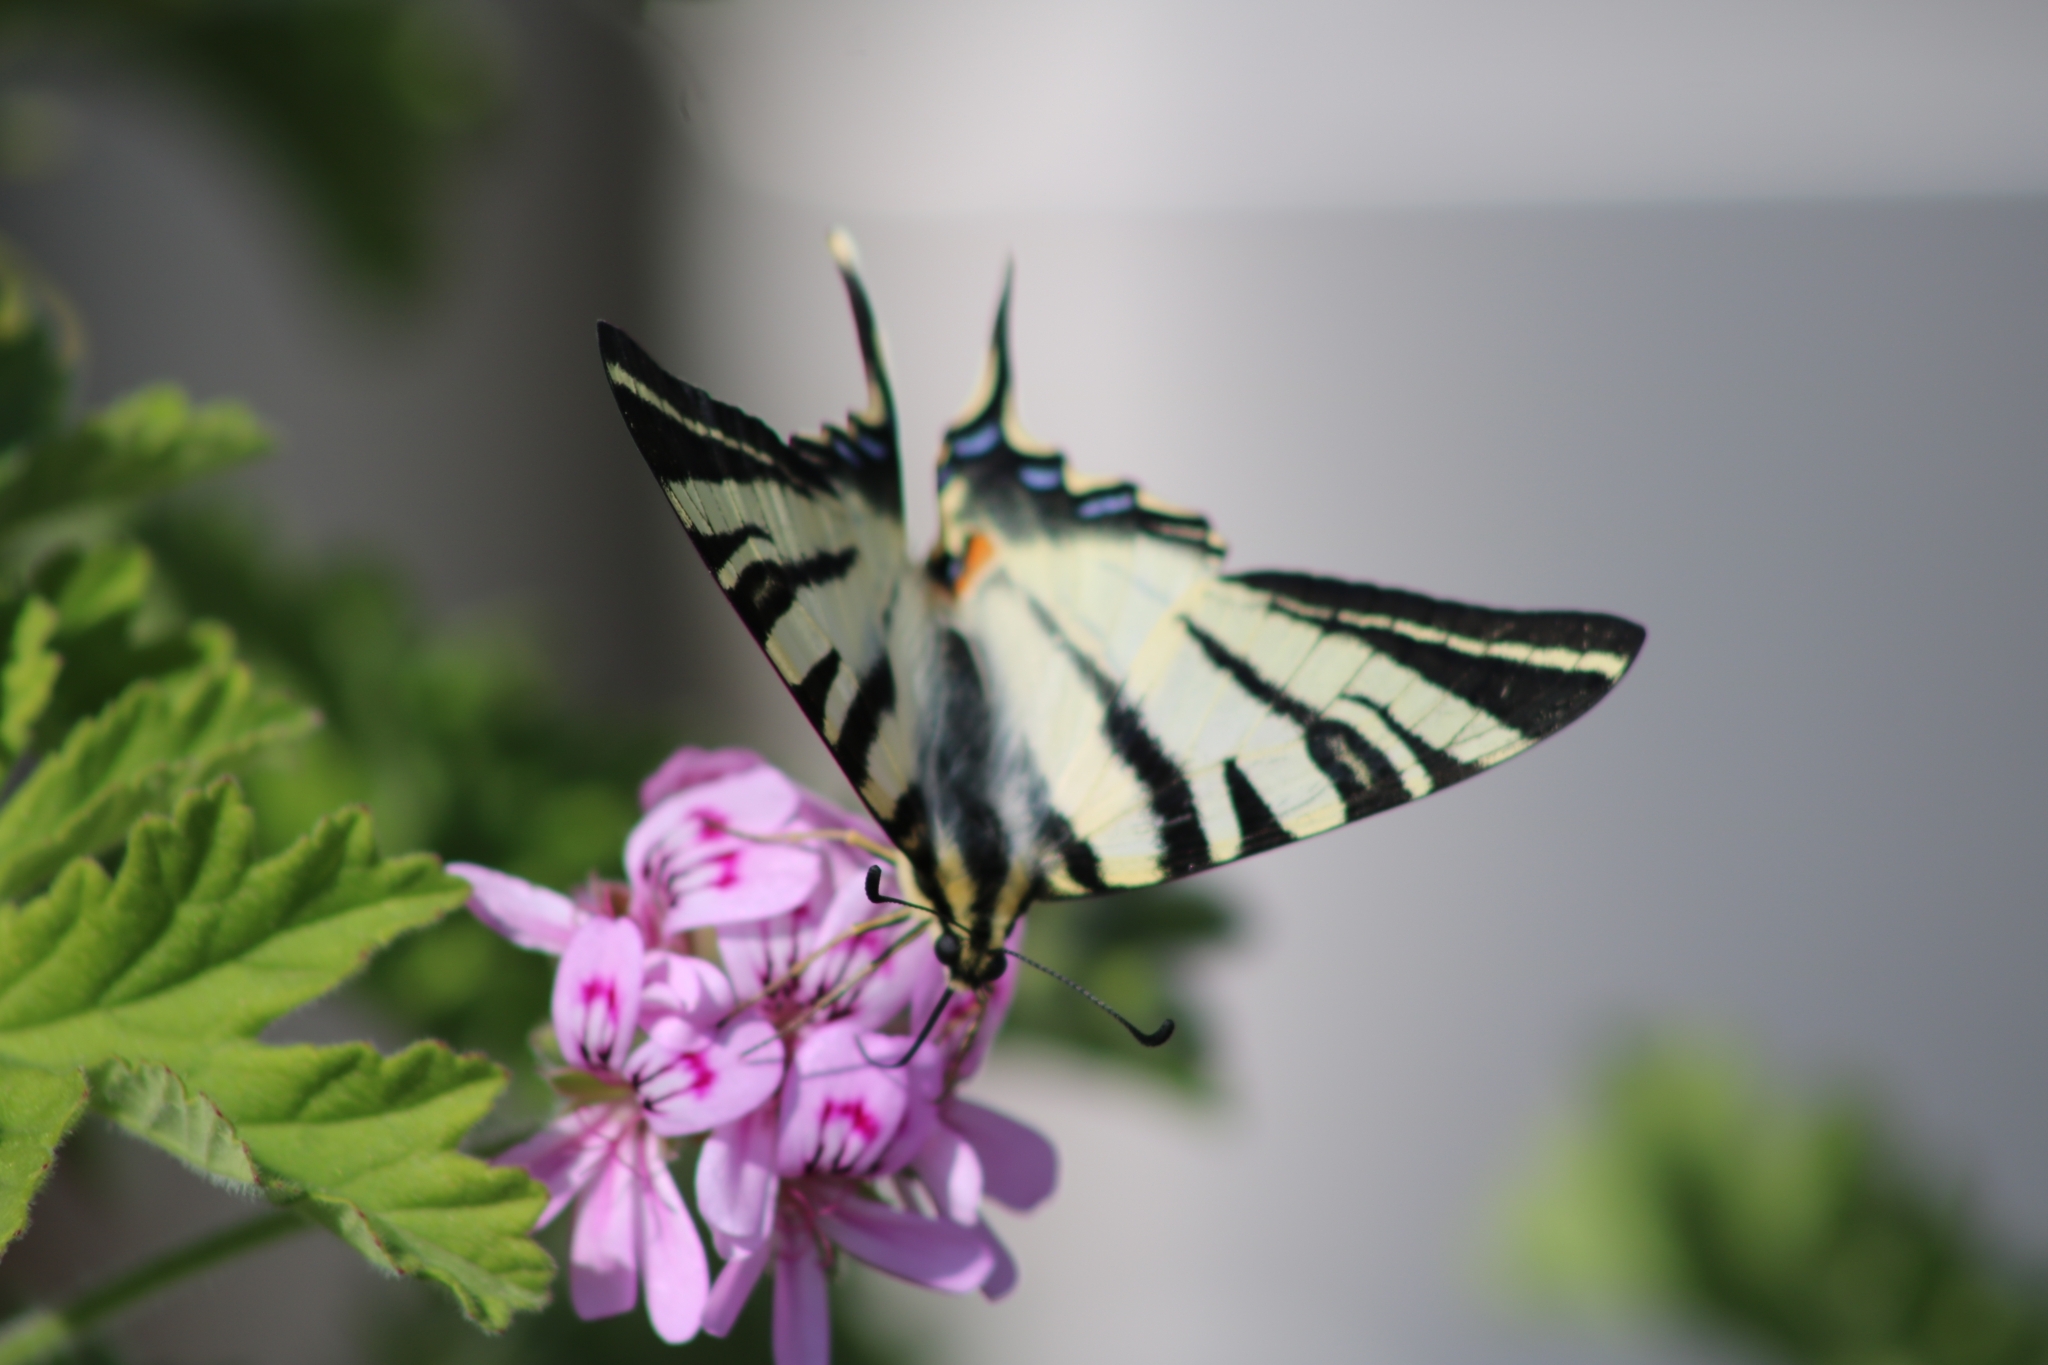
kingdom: Animalia
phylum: Arthropoda
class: Insecta
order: Lepidoptera
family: Papilionidae
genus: Iphiclides
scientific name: Iphiclides podalirius
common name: Scarce swallowtail
